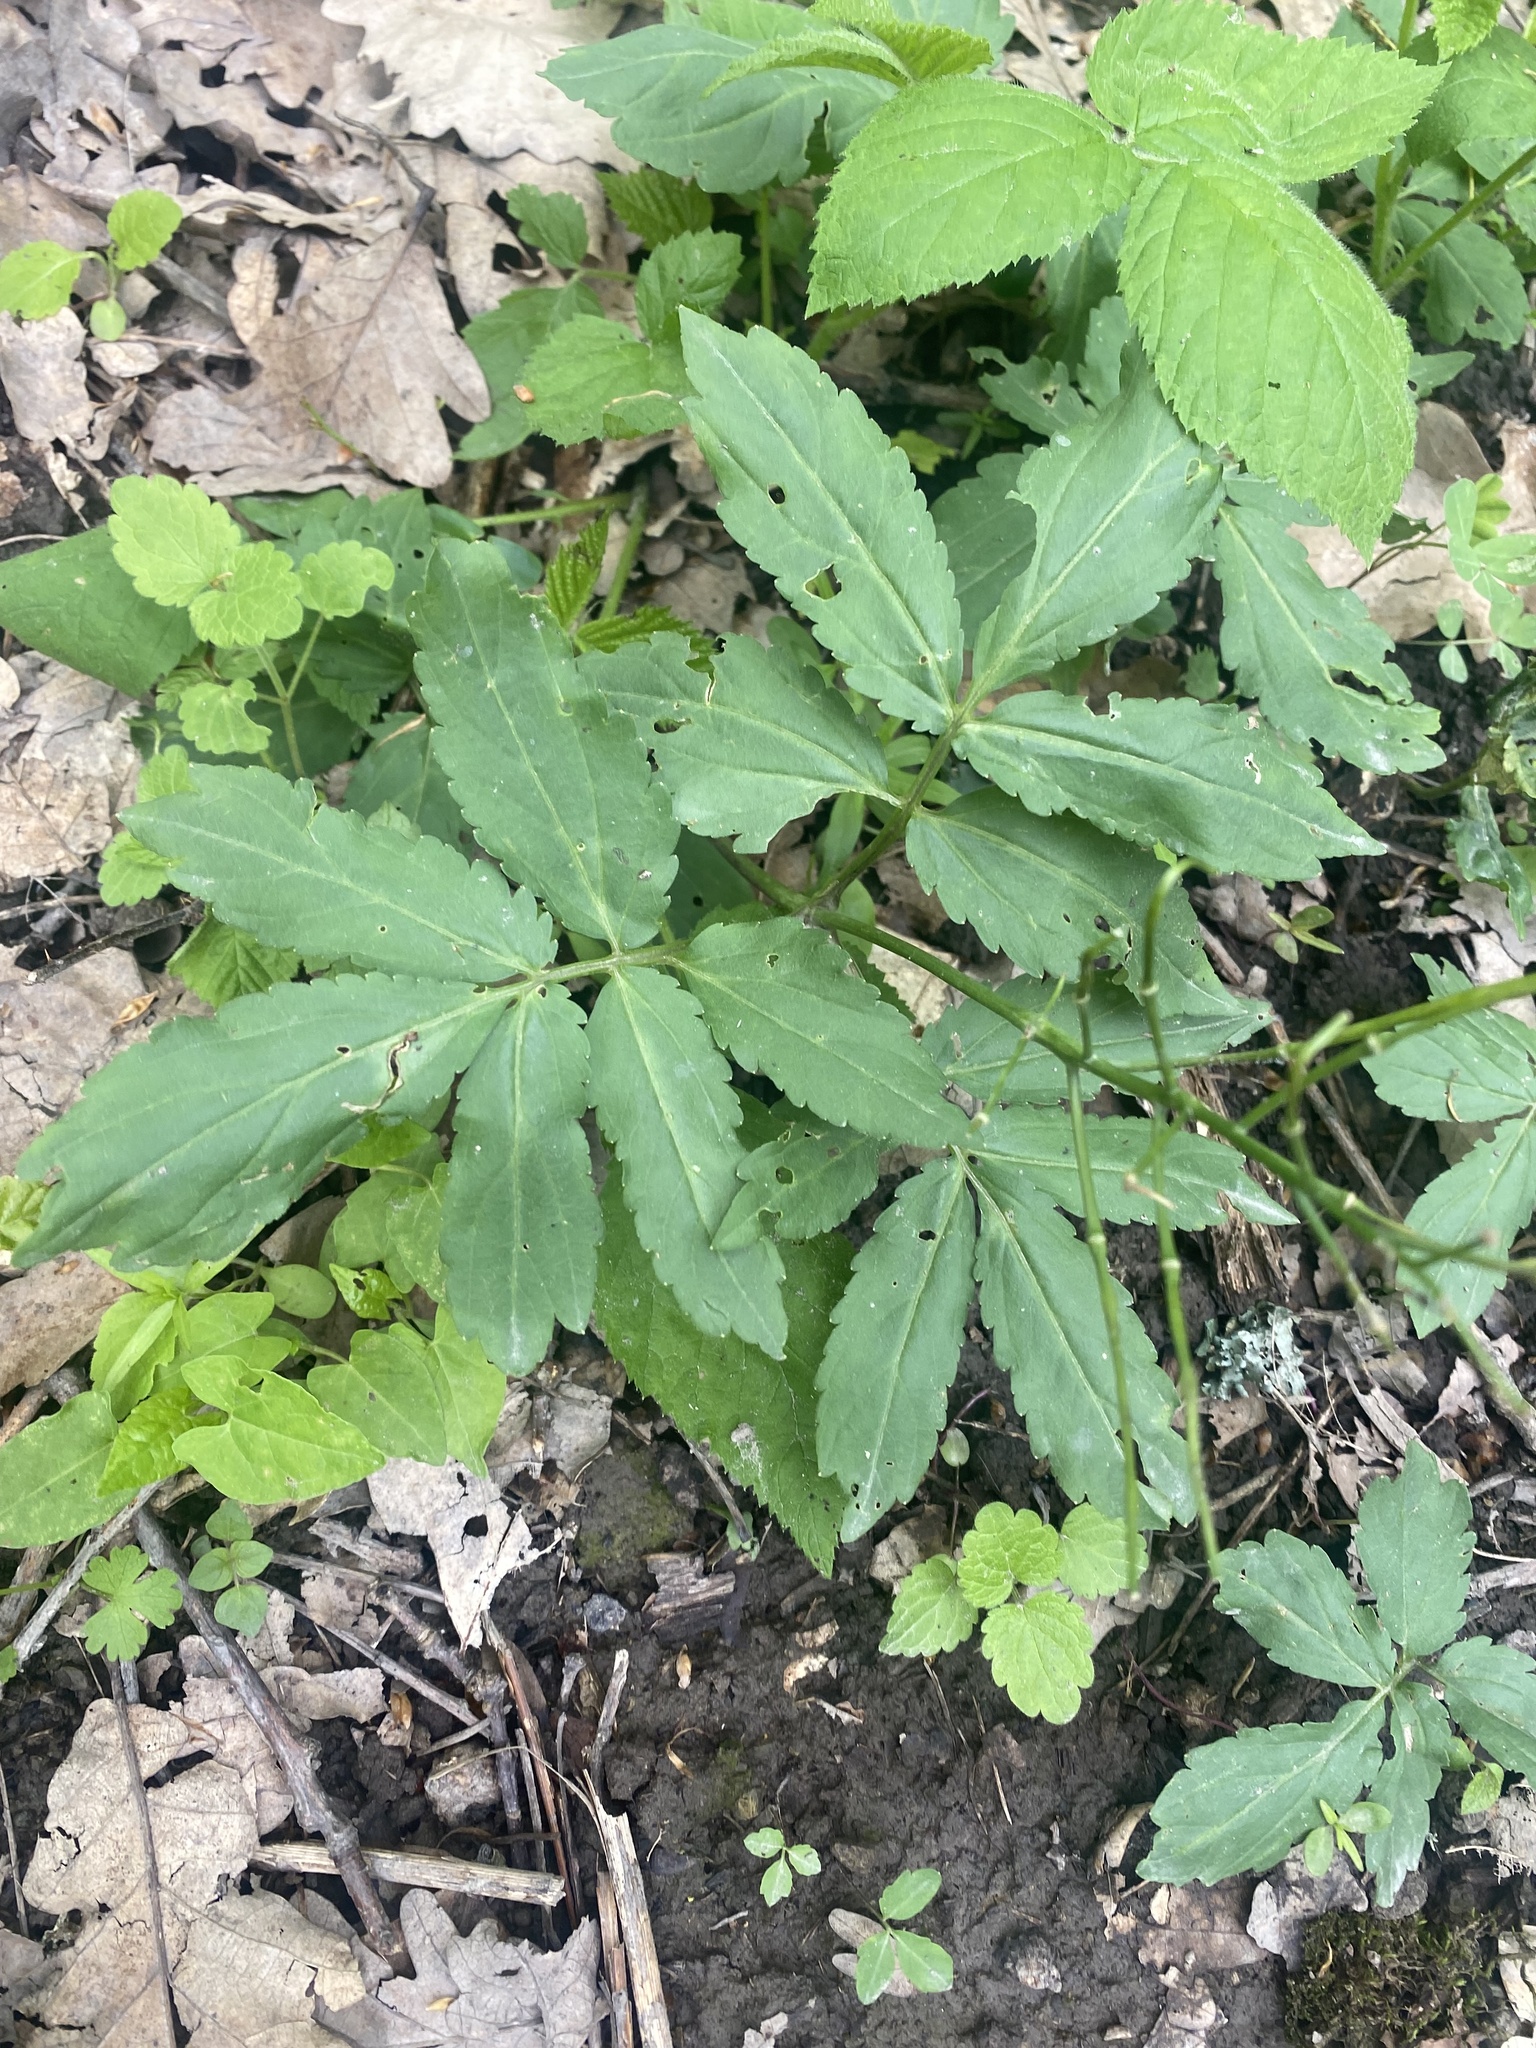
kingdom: Plantae
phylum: Tracheophyta
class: Magnoliopsida
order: Brassicales
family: Brassicaceae
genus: Cardamine
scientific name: Cardamine quinquefolia
